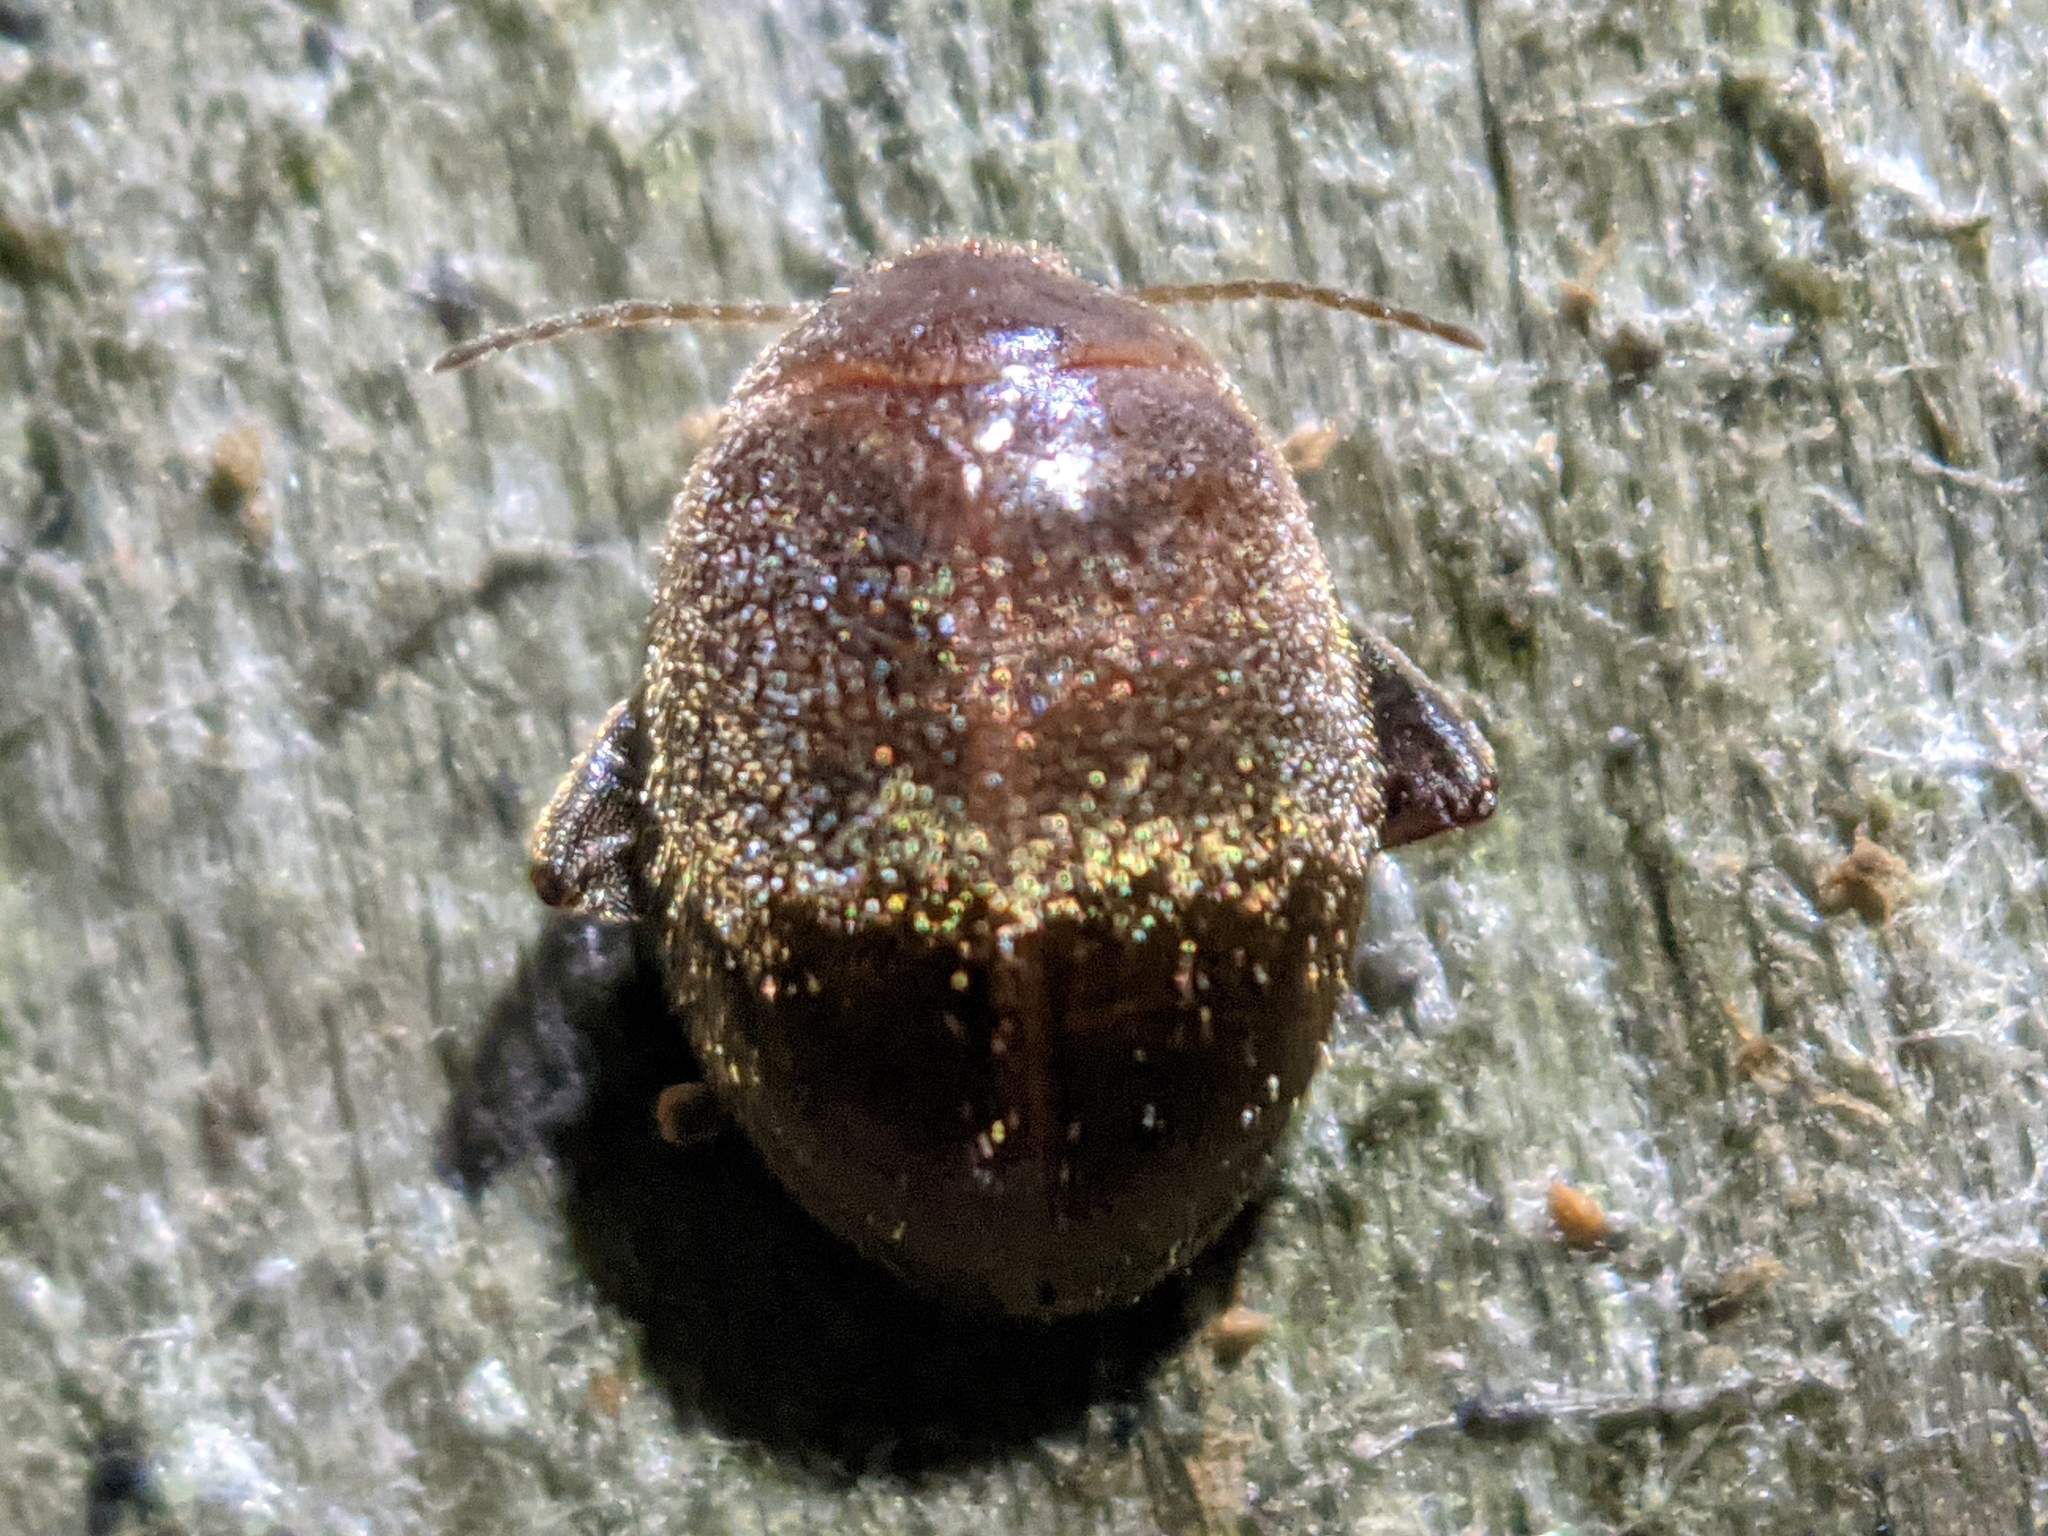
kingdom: Animalia
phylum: Arthropoda
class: Insecta
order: Coleoptera
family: Scirtidae
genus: Scirtes
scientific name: Scirtes tibialis
